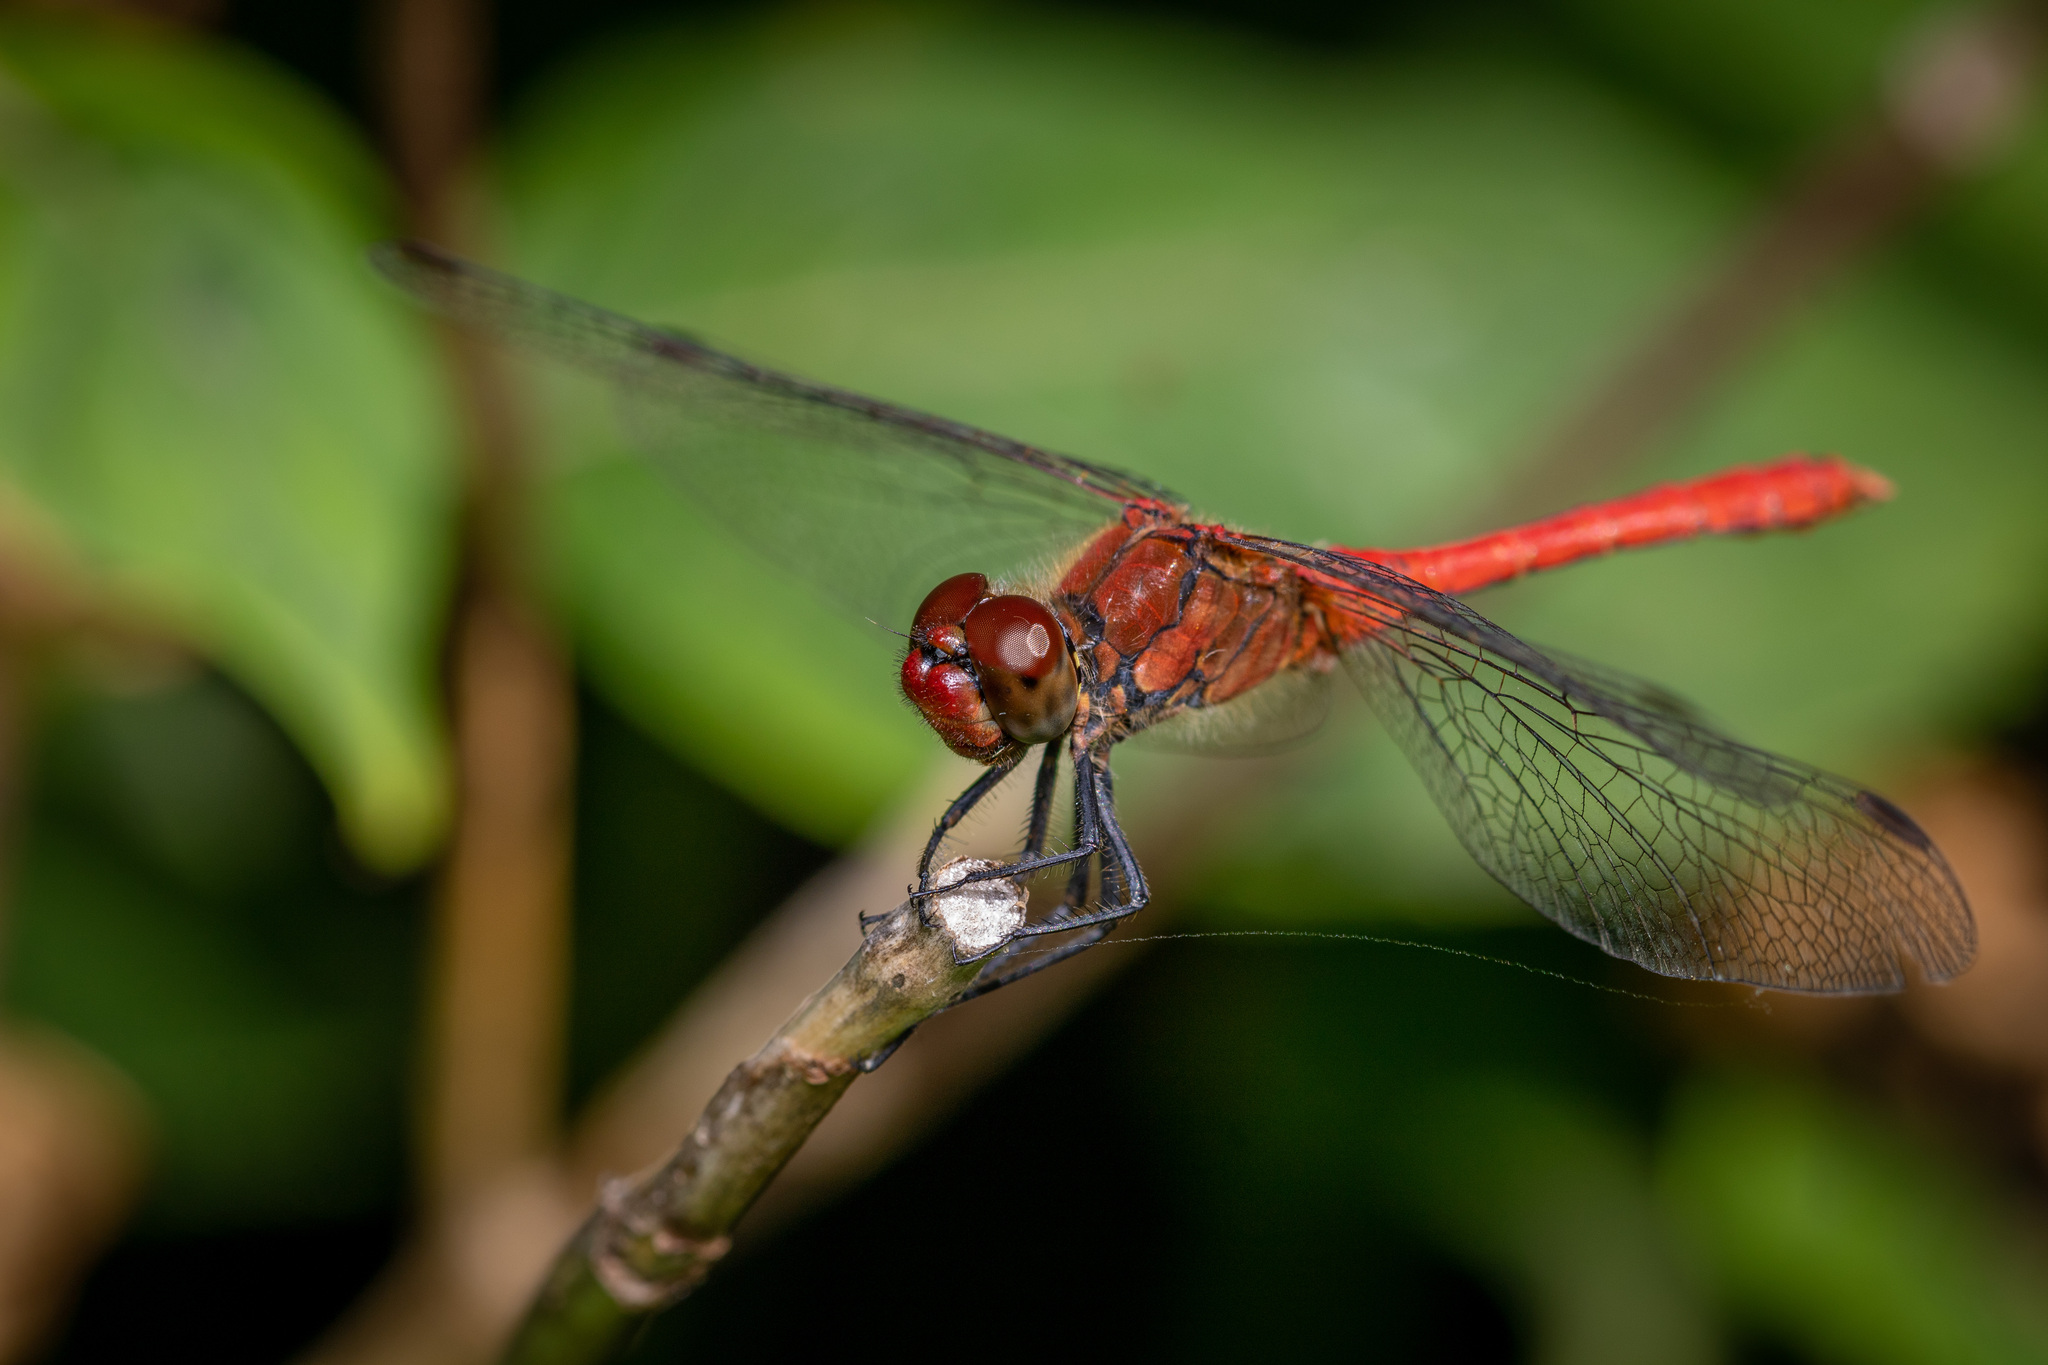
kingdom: Animalia
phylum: Arthropoda
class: Insecta
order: Odonata
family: Libellulidae
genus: Sympetrum
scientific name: Sympetrum sanguineum
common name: Ruddy darter
